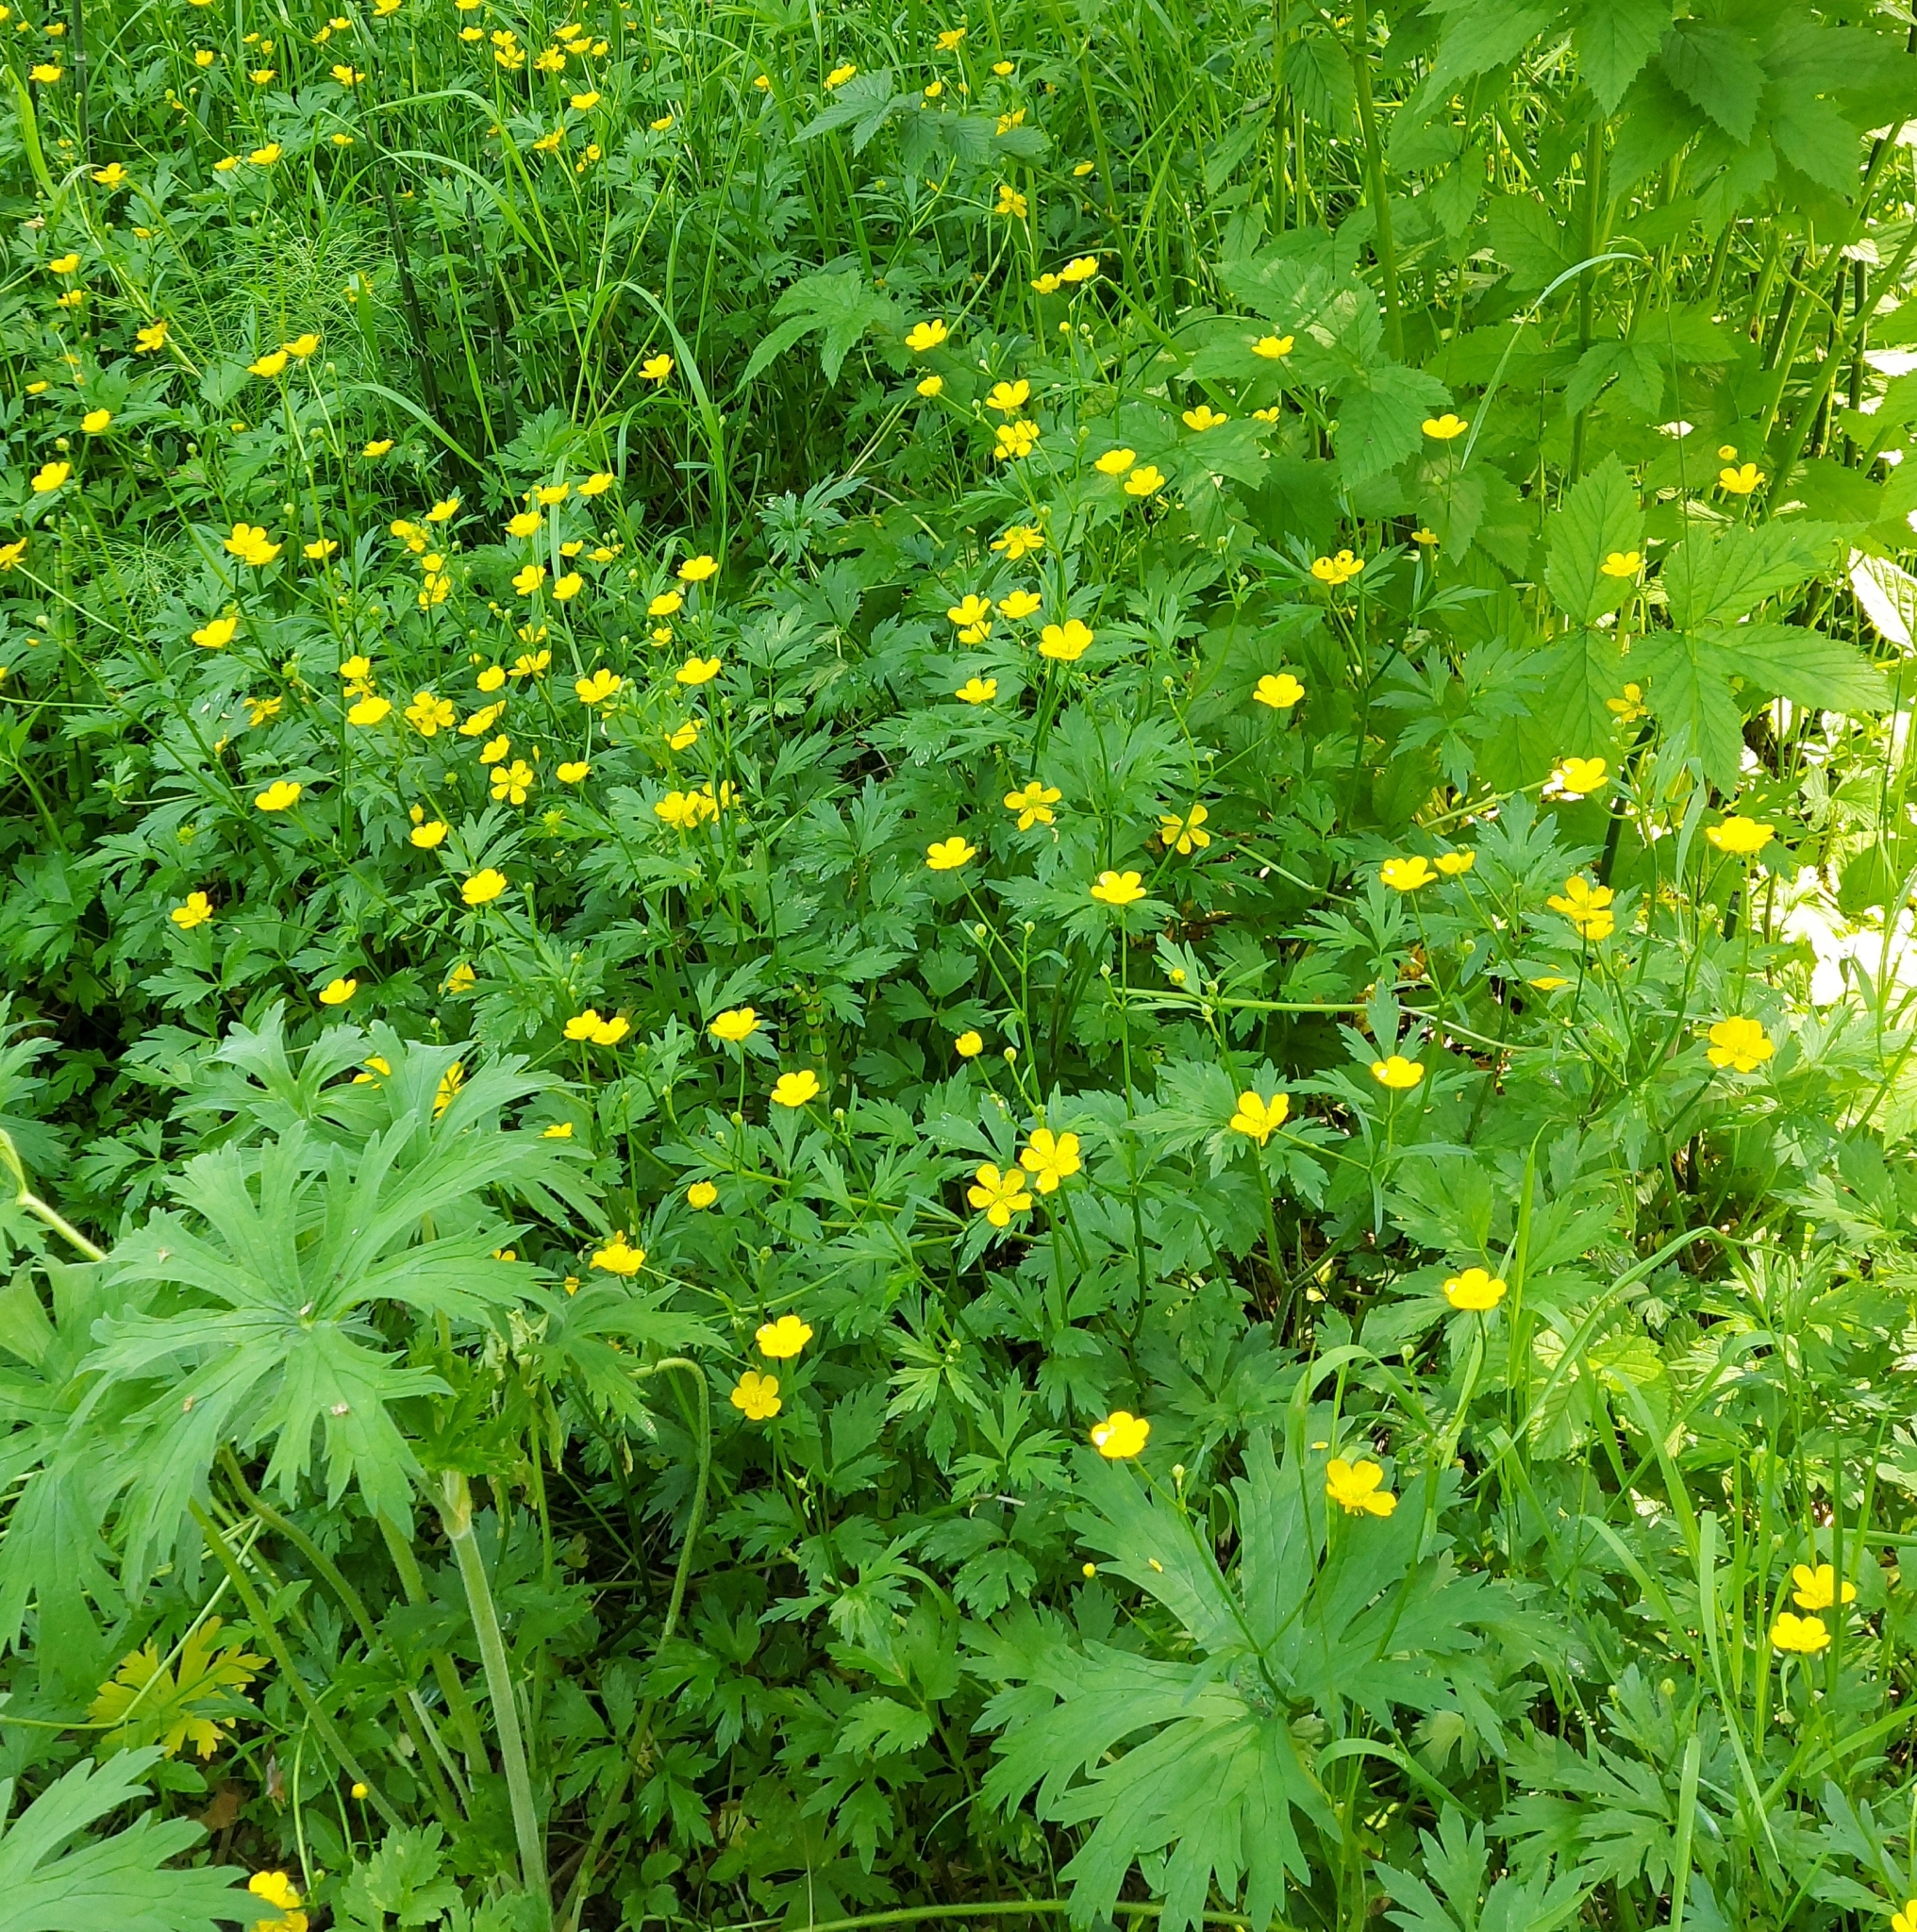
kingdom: Plantae
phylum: Tracheophyta
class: Magnoliopsida
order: Ranunculales
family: Ranunculaceae
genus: Ranunculus
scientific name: Ranunculus repens
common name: Creeping buttercup
